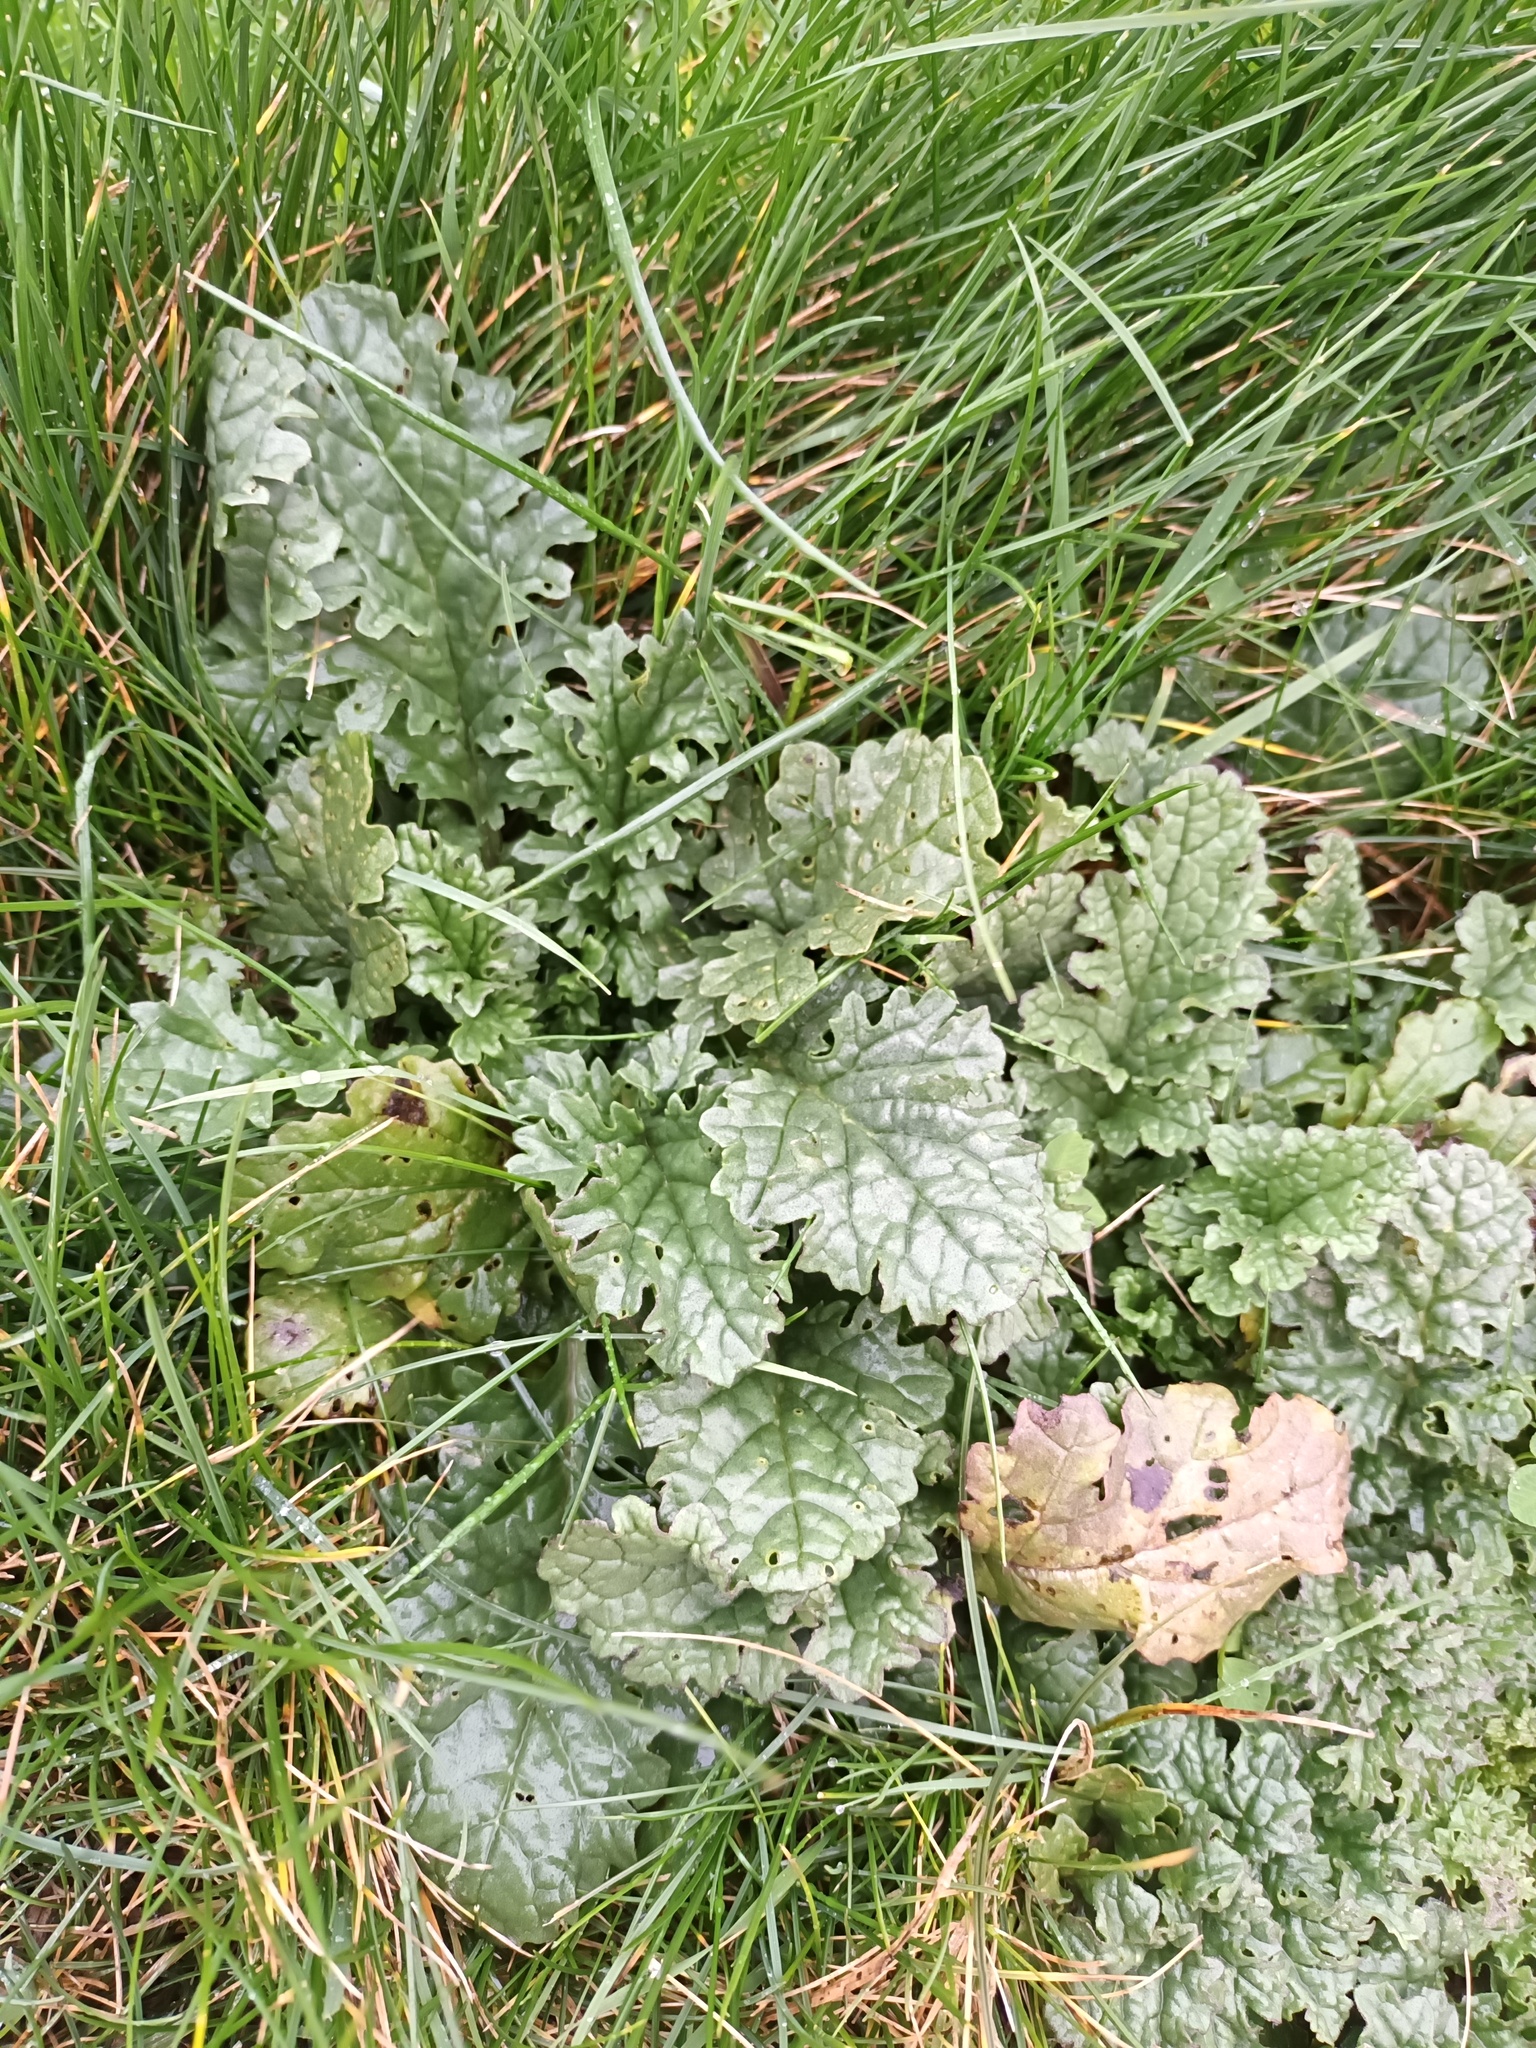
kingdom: Plantae
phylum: Tracheophyta
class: Magnoliopsida
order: Asterales
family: Asteraceae
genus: Jacobaea
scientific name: Jacobaea vulgaris
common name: Stinking willie
